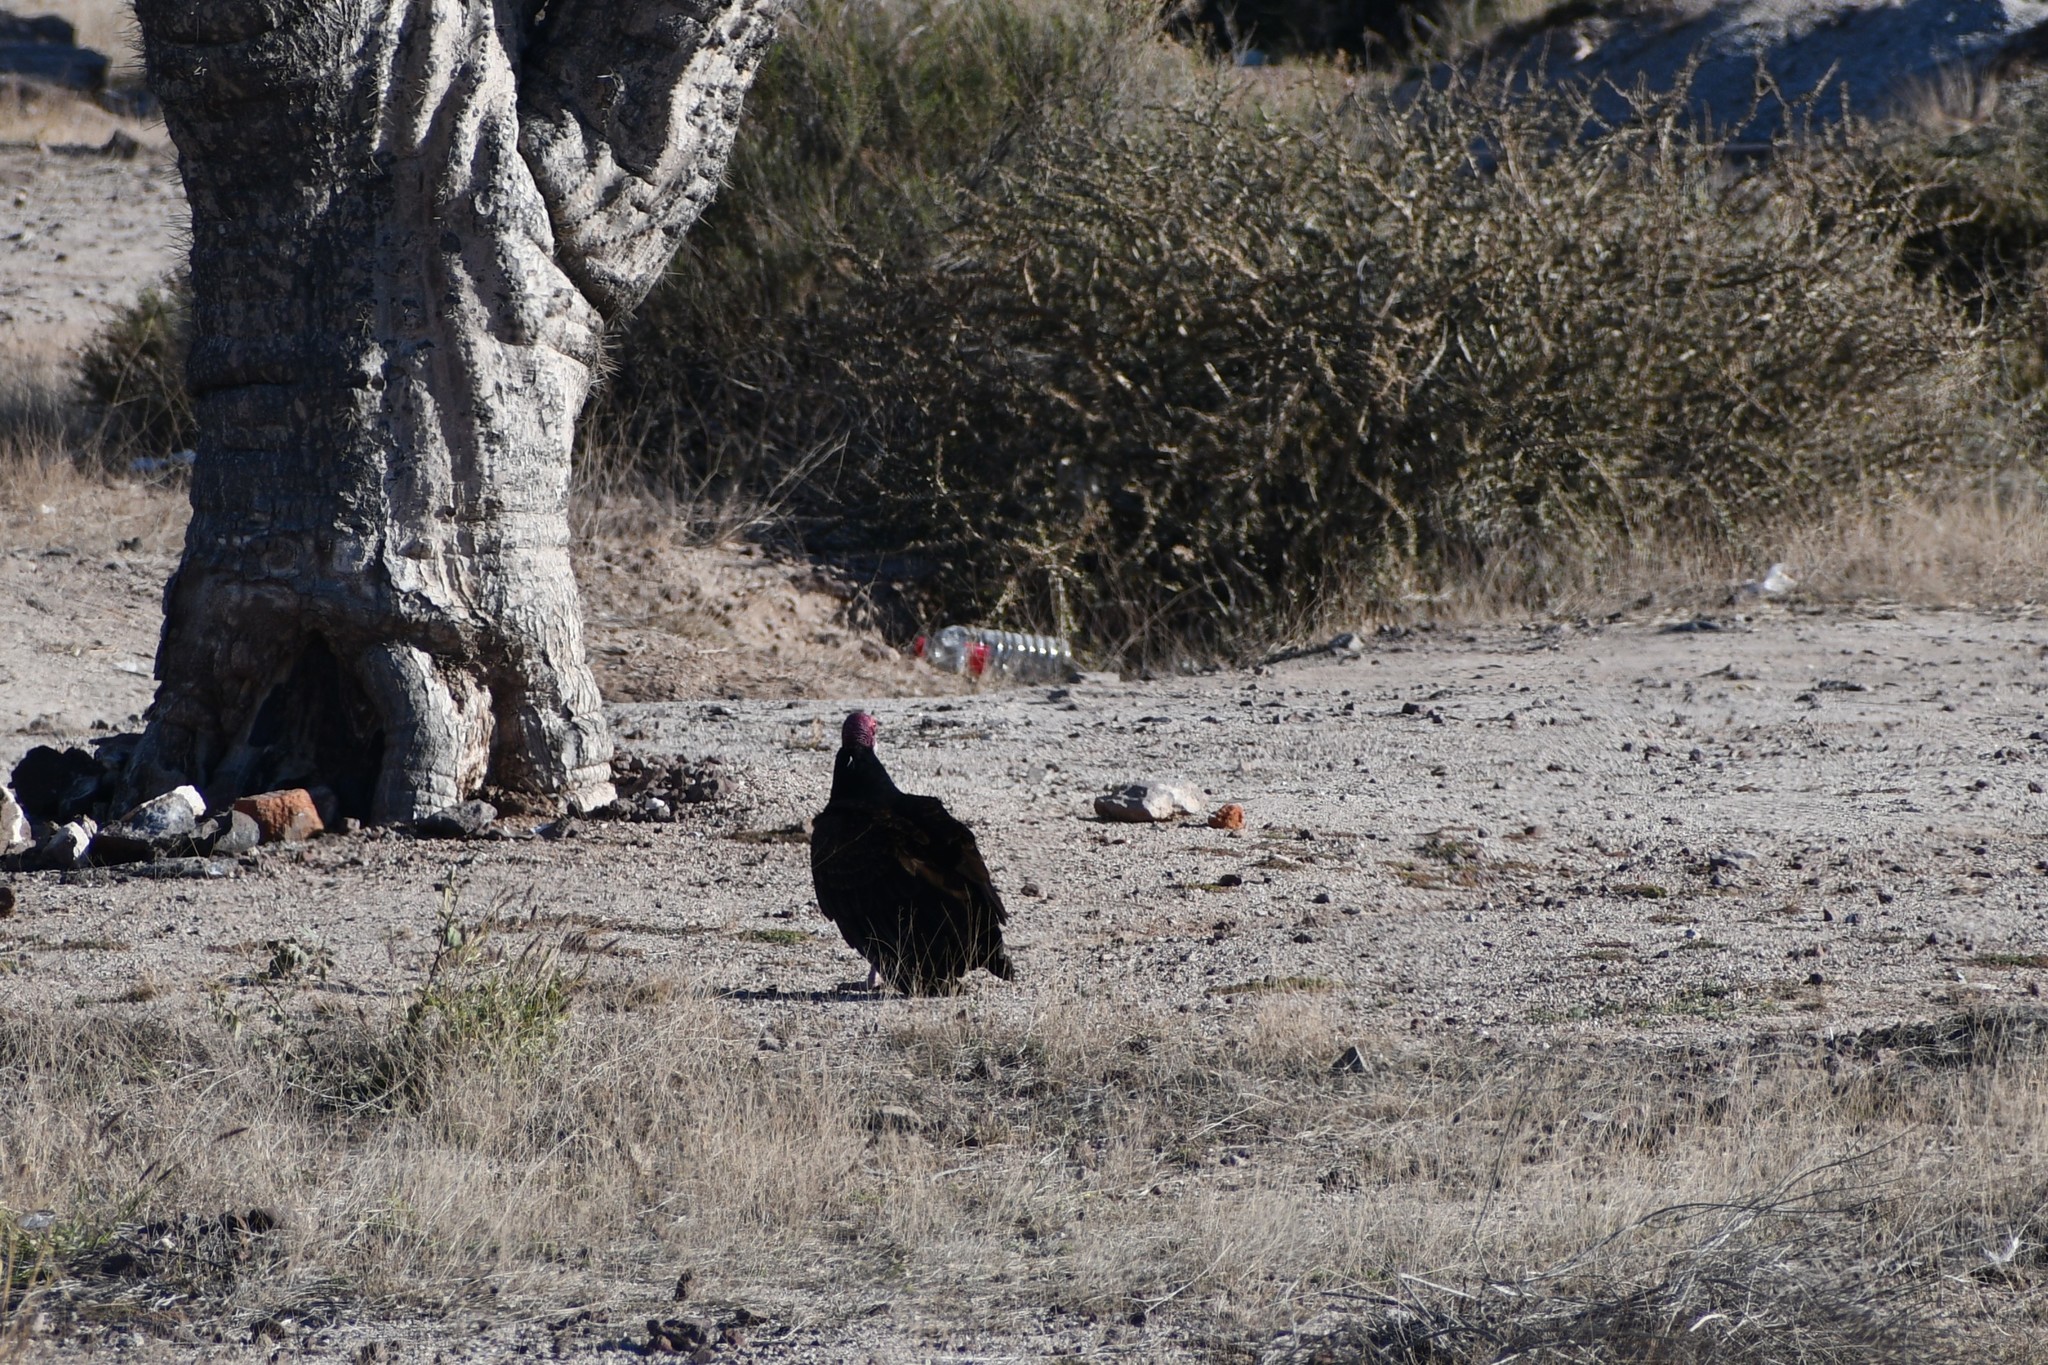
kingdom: Animalia
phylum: Chordata
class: Aves
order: Accipitriformes
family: Cathartidae
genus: Cathartes
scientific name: Cathartes aura
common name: Turkey vulture
